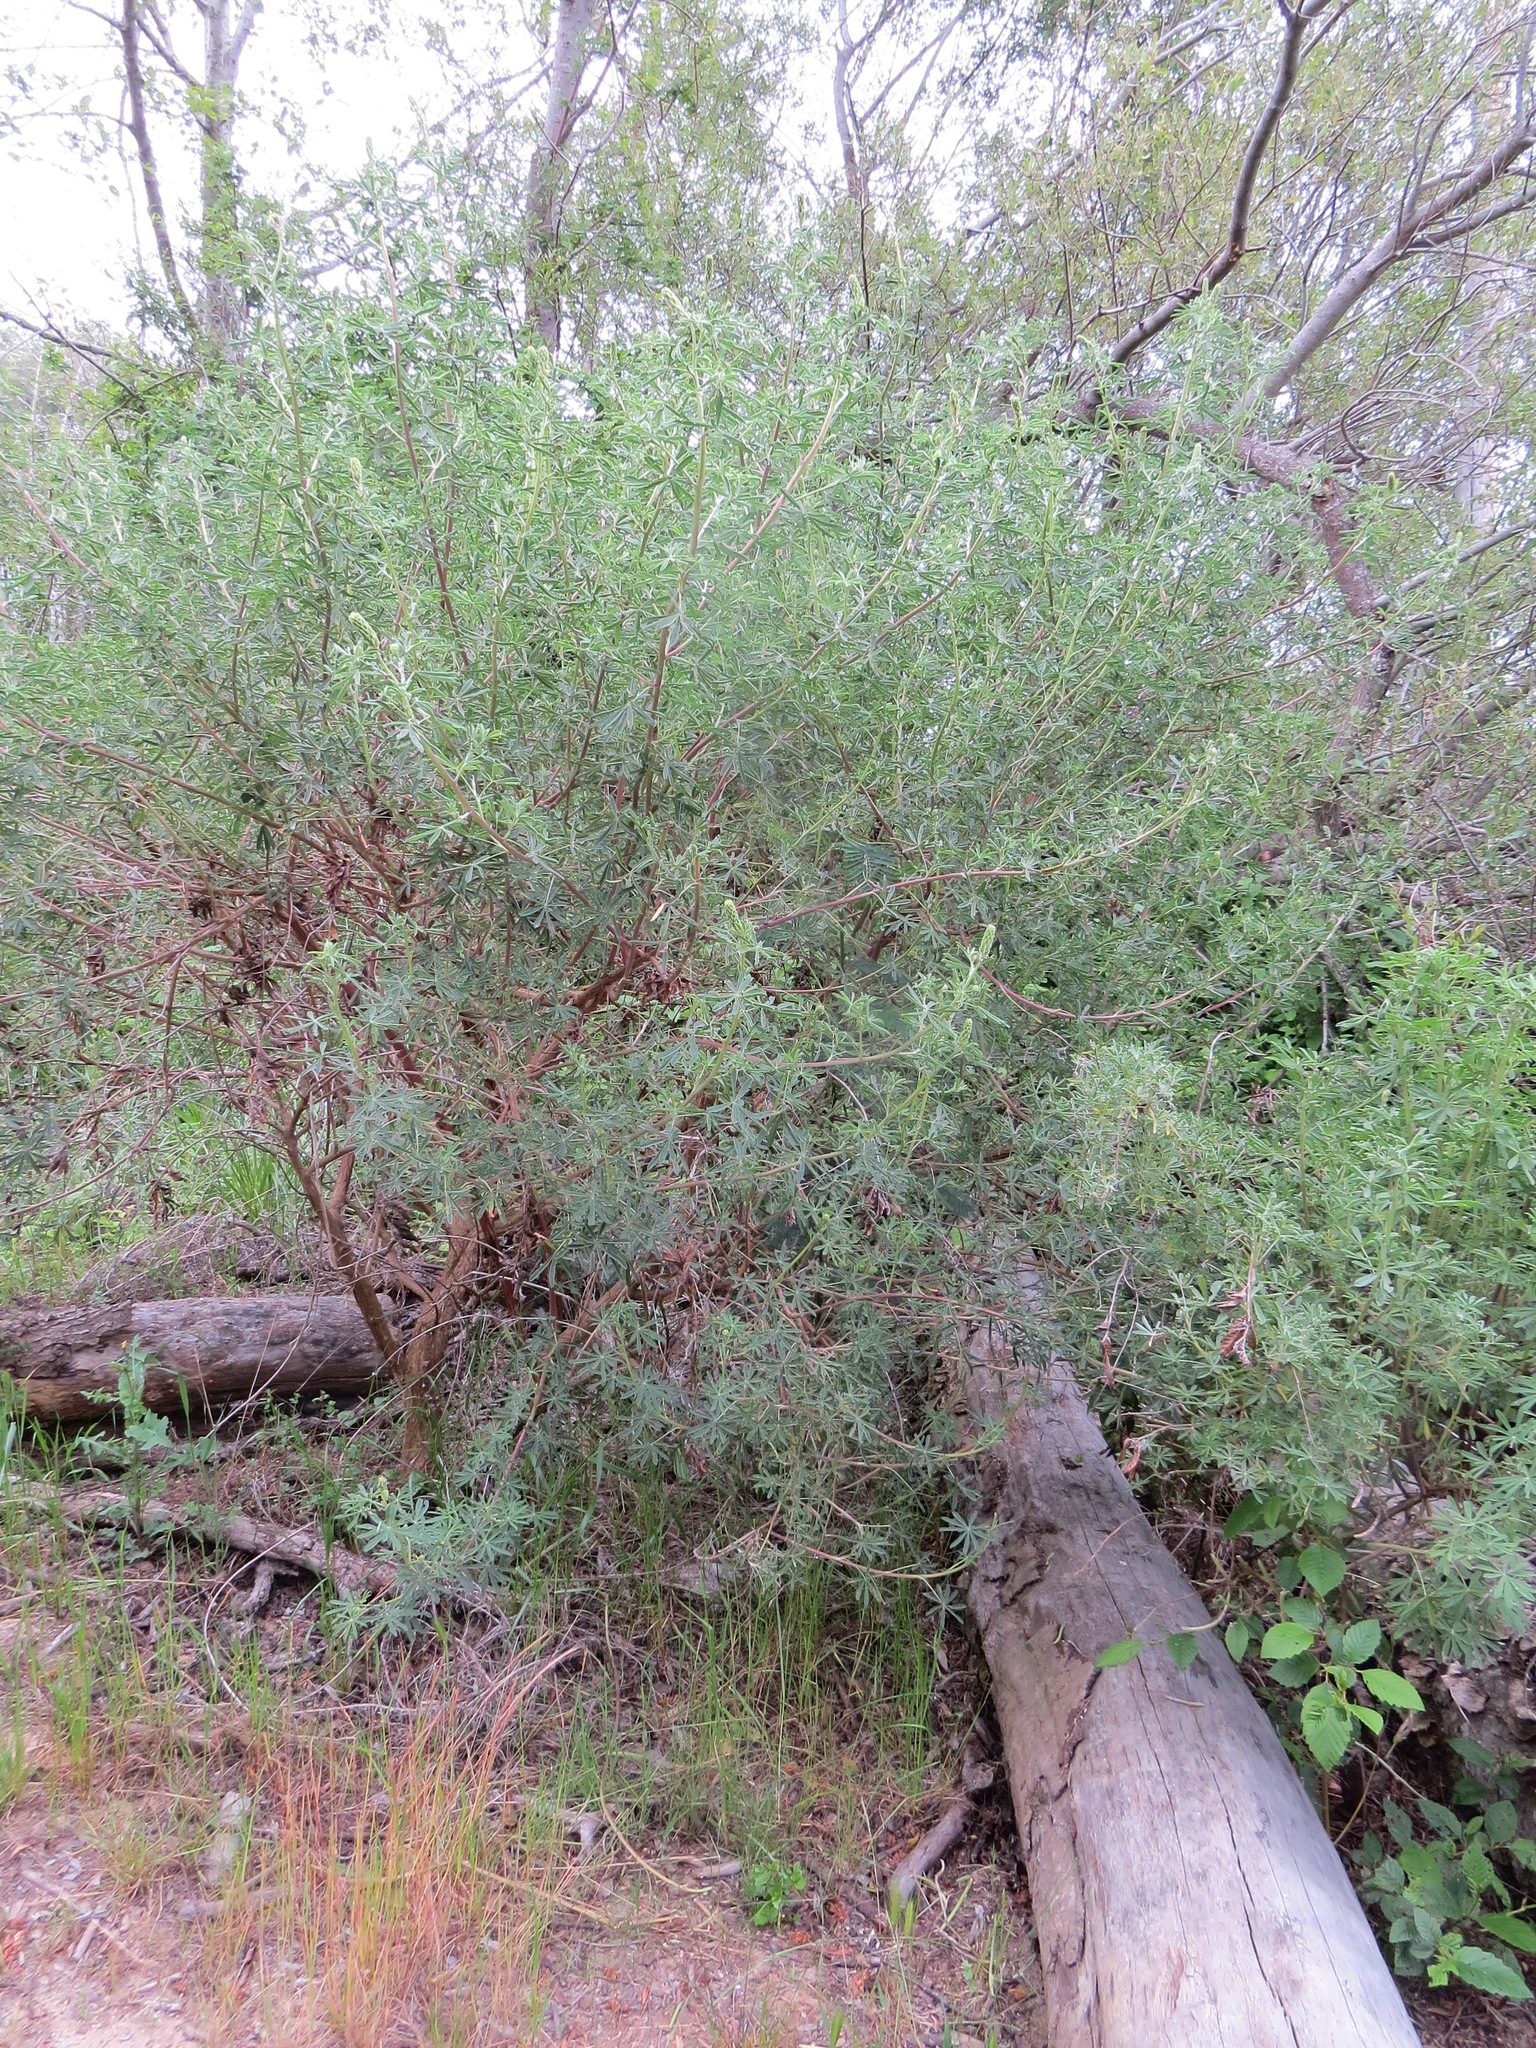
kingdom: Plantae
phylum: Tracheophyta
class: Magnoliopsida
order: Fabales
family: Fabaceae
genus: Lupinus
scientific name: Lupinus arboreus
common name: Yellow bush lupine
